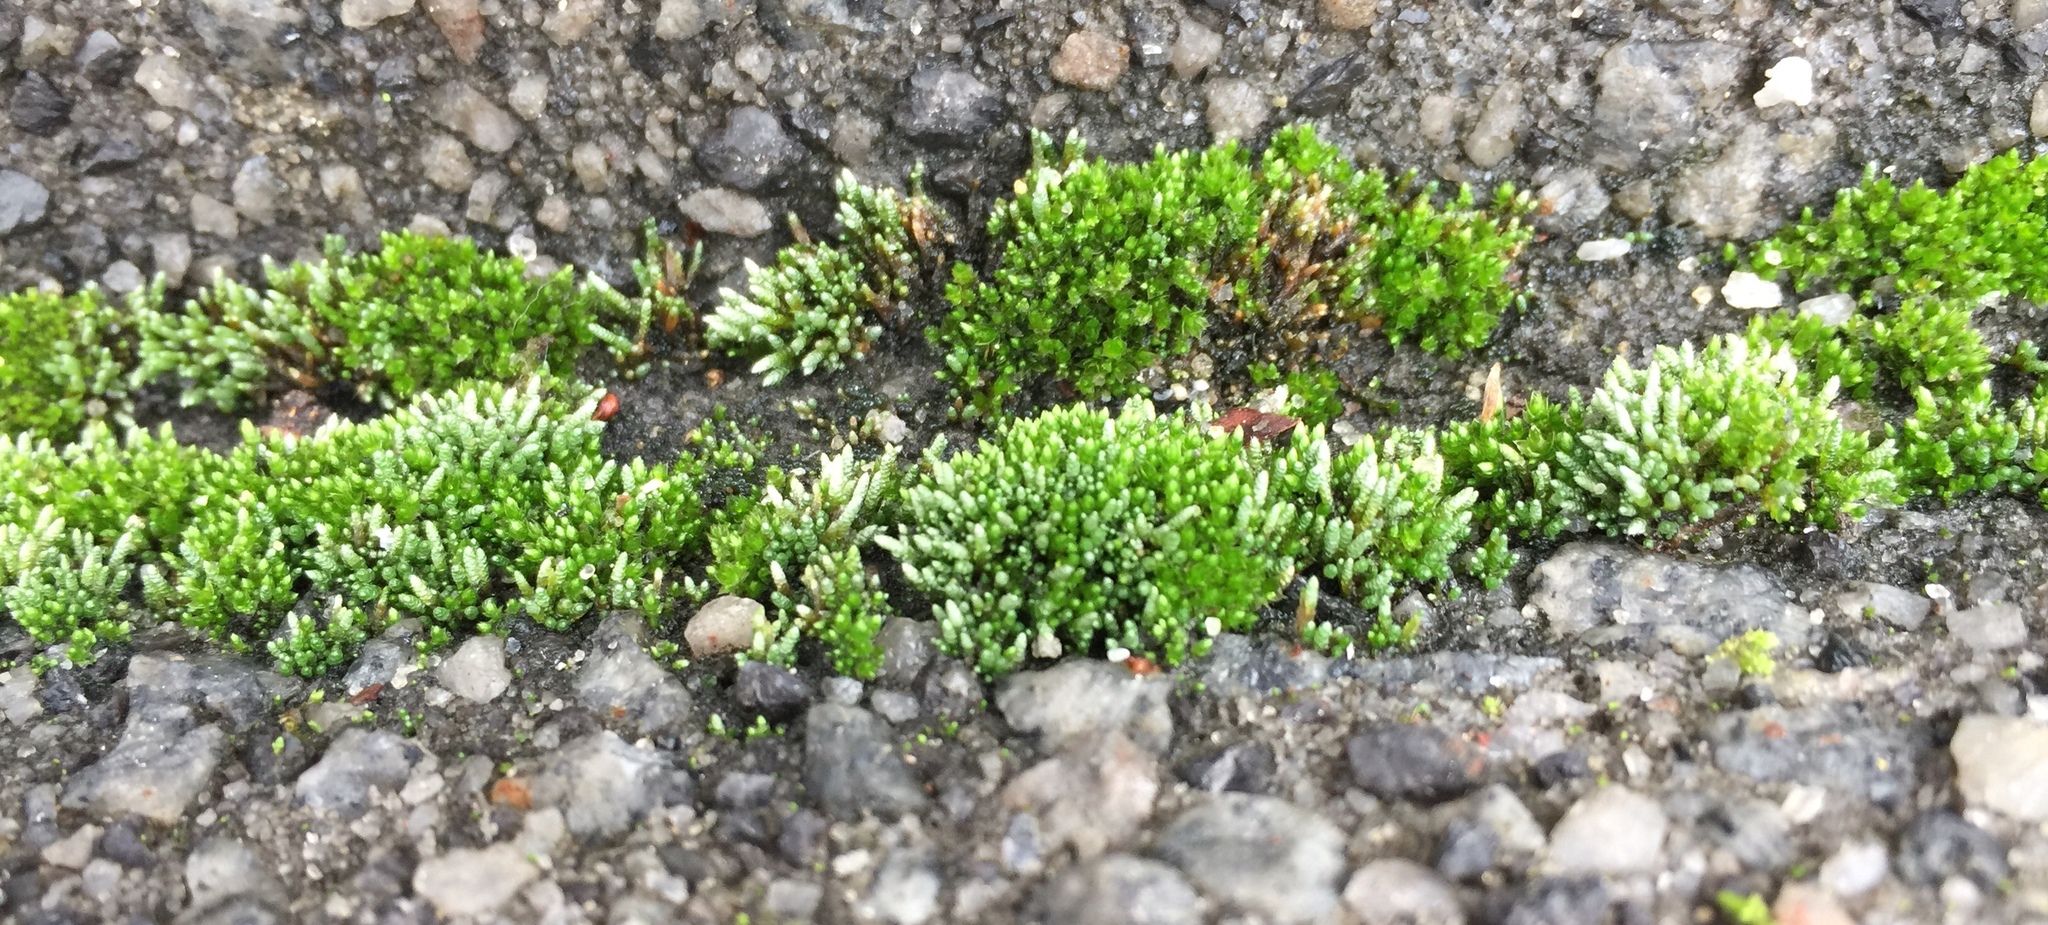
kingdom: Plantae
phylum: Bryophyta
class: Bryopsida
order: Bryales
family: Bryaceae
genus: Bryum
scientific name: Bryum argenteum
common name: Silver-moss
